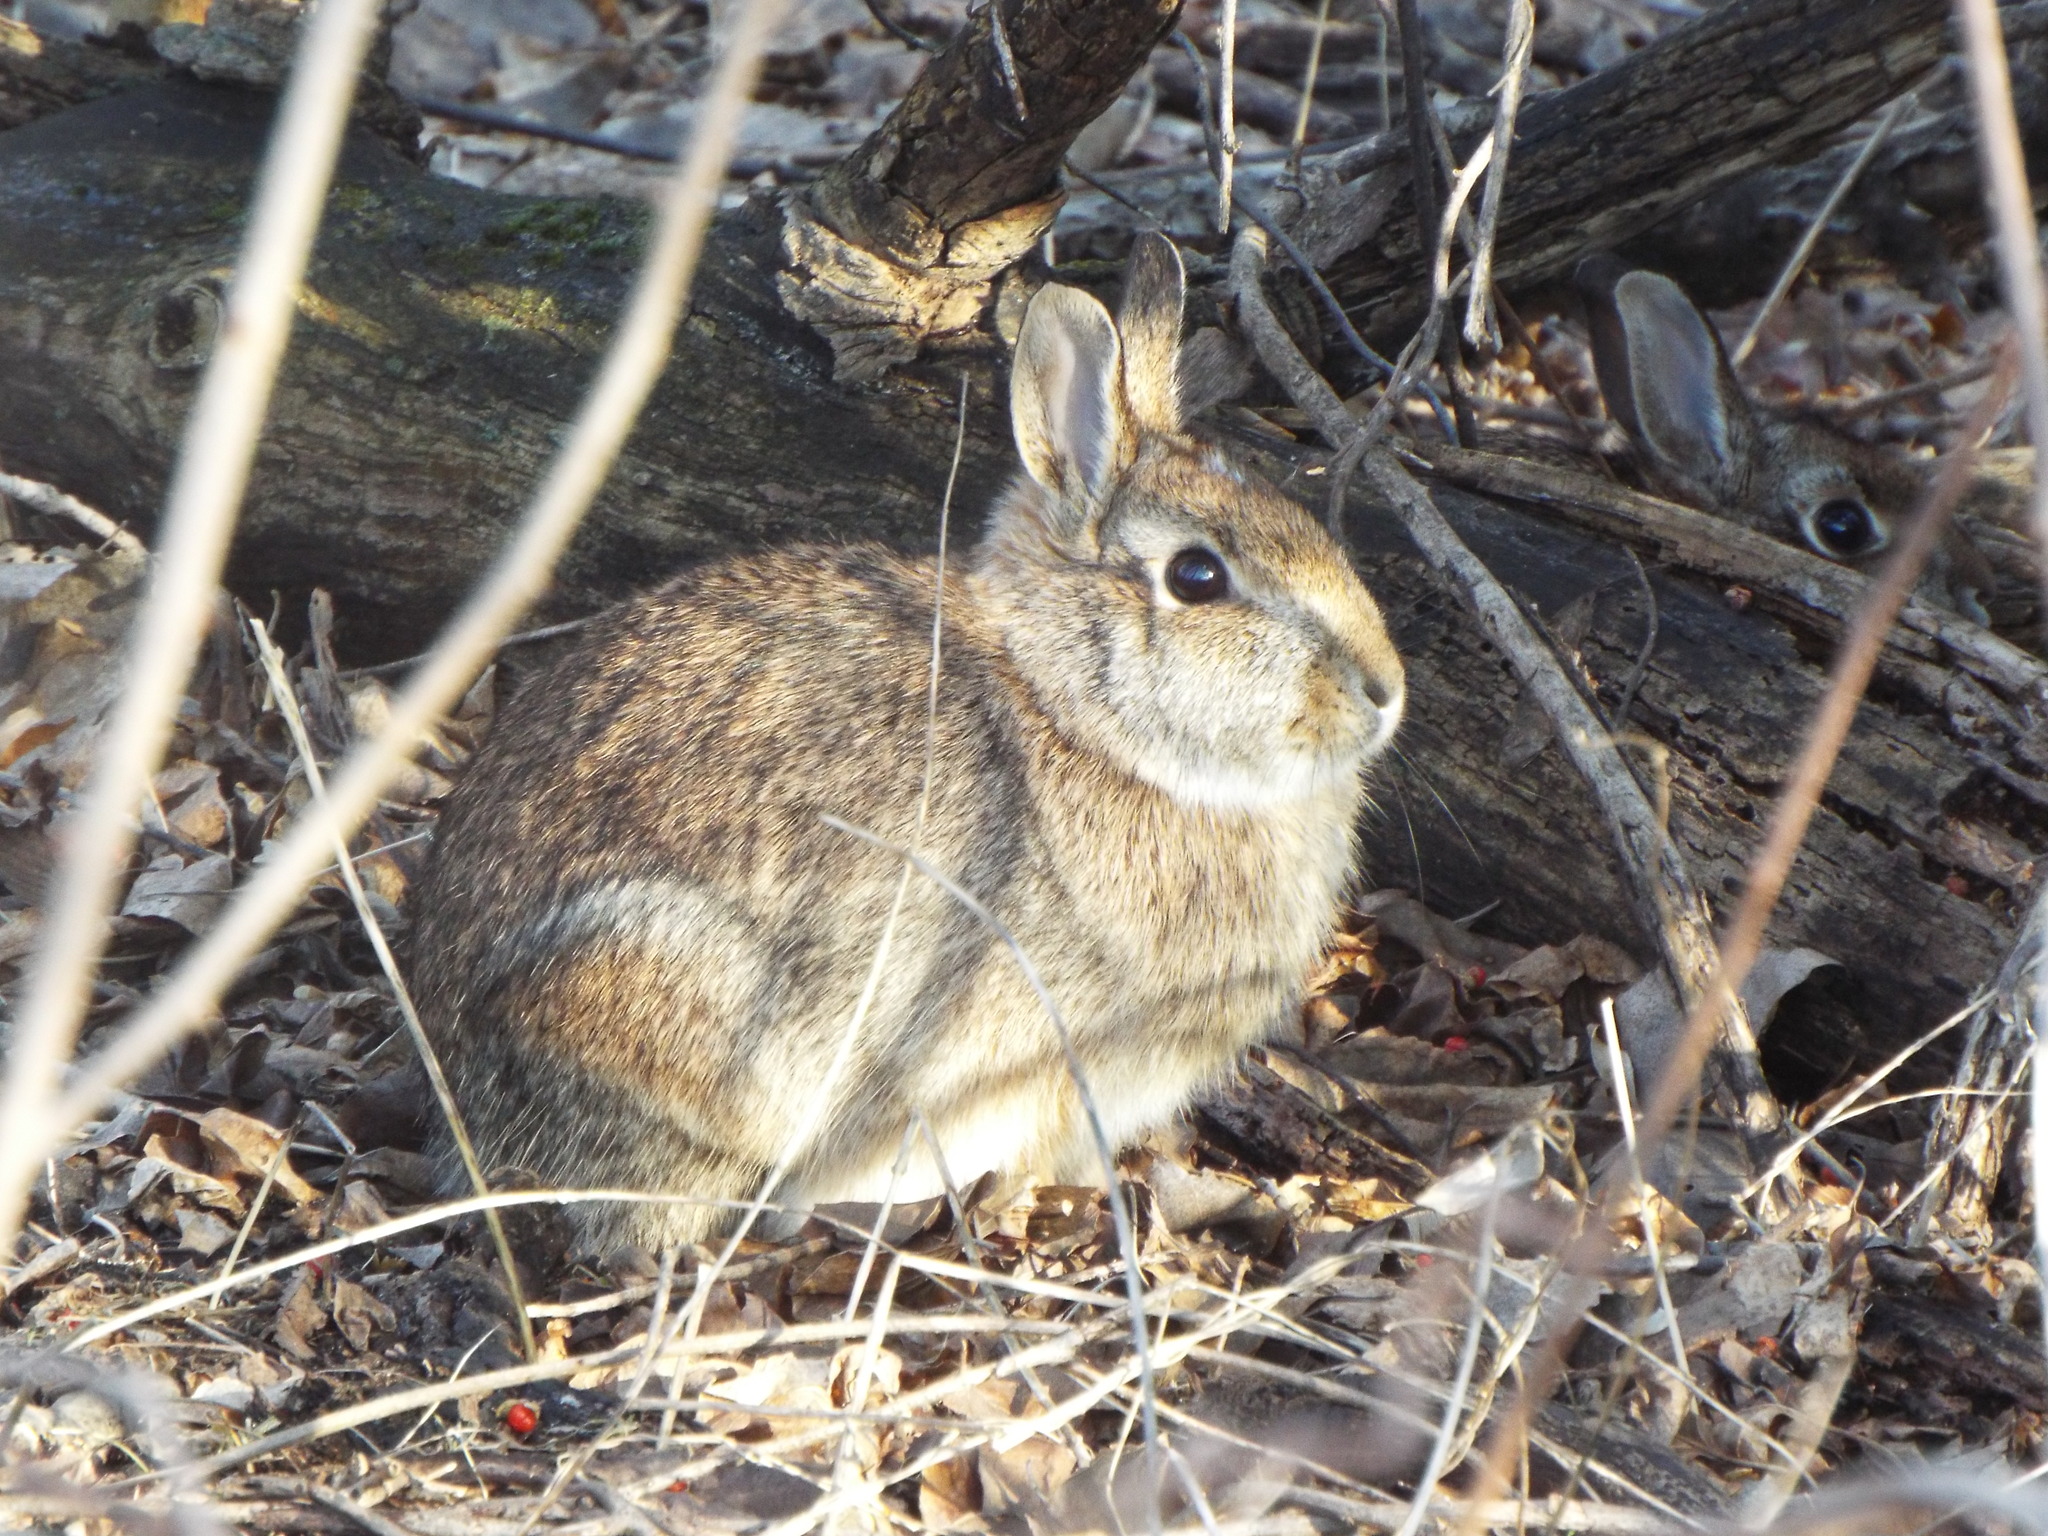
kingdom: Animalia
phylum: Chordata
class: Mammalia
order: Lagomorpha
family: Leporidae
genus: Sylvilagus
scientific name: Sylvilagus floridanus
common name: Eastern cottontail
